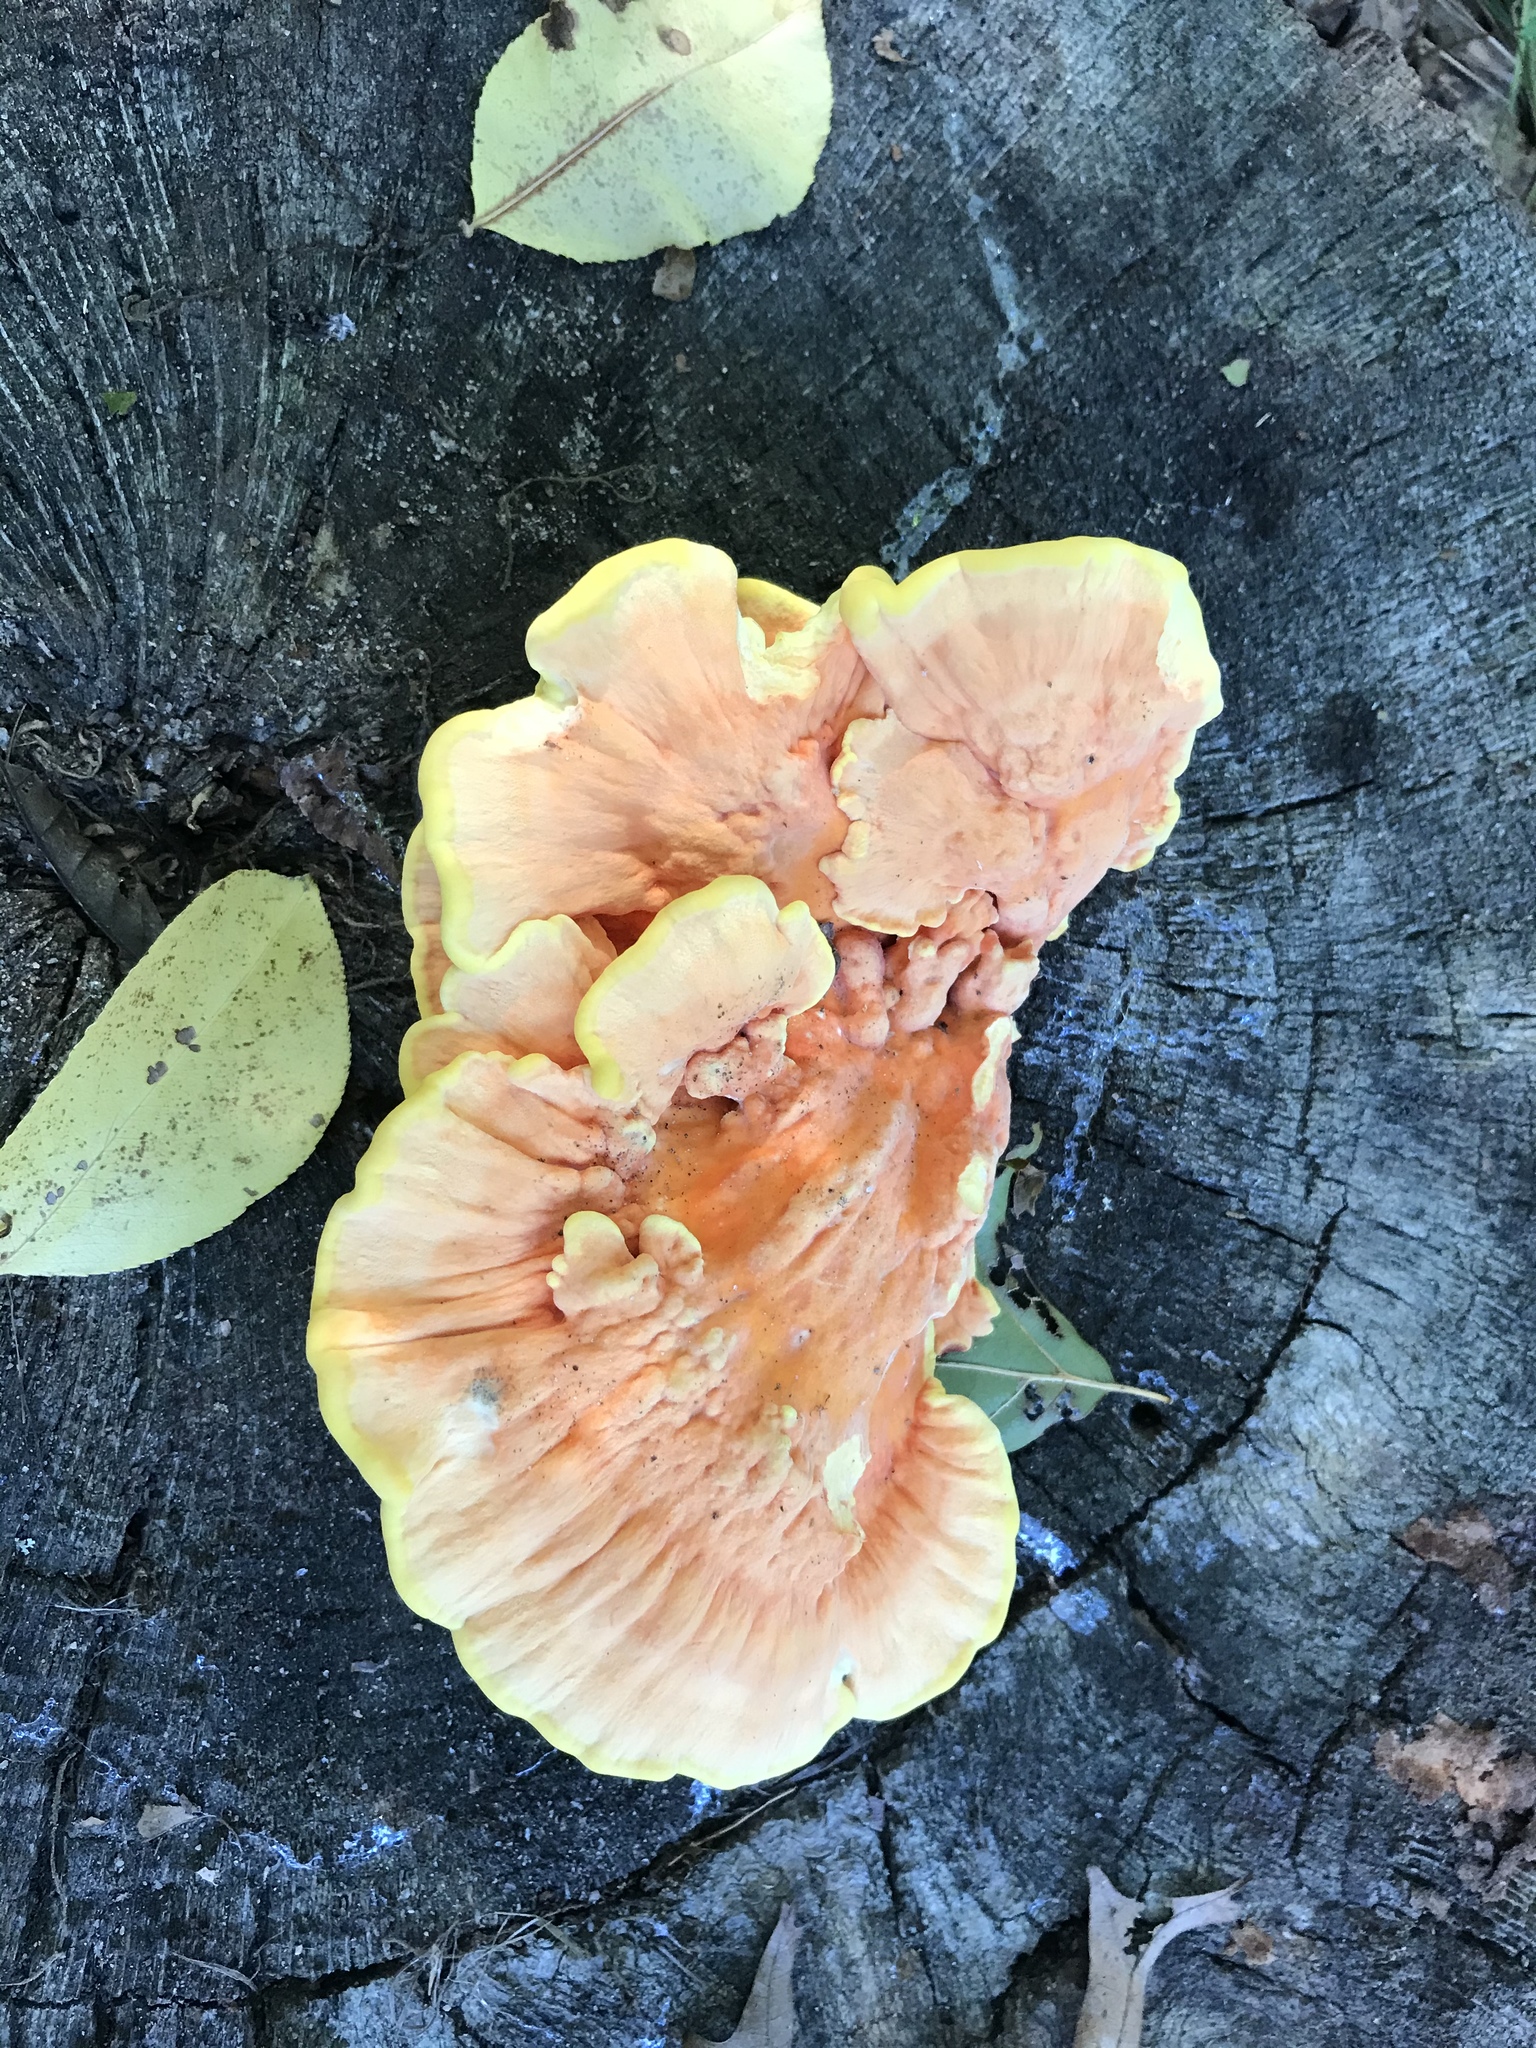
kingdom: Fungi
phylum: Basidiomycota
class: Agaricomycetes
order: Polyporales
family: Laetiporaceae
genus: Laetiporus
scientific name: Laetiporus sulphureus
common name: Chicken of the woods
